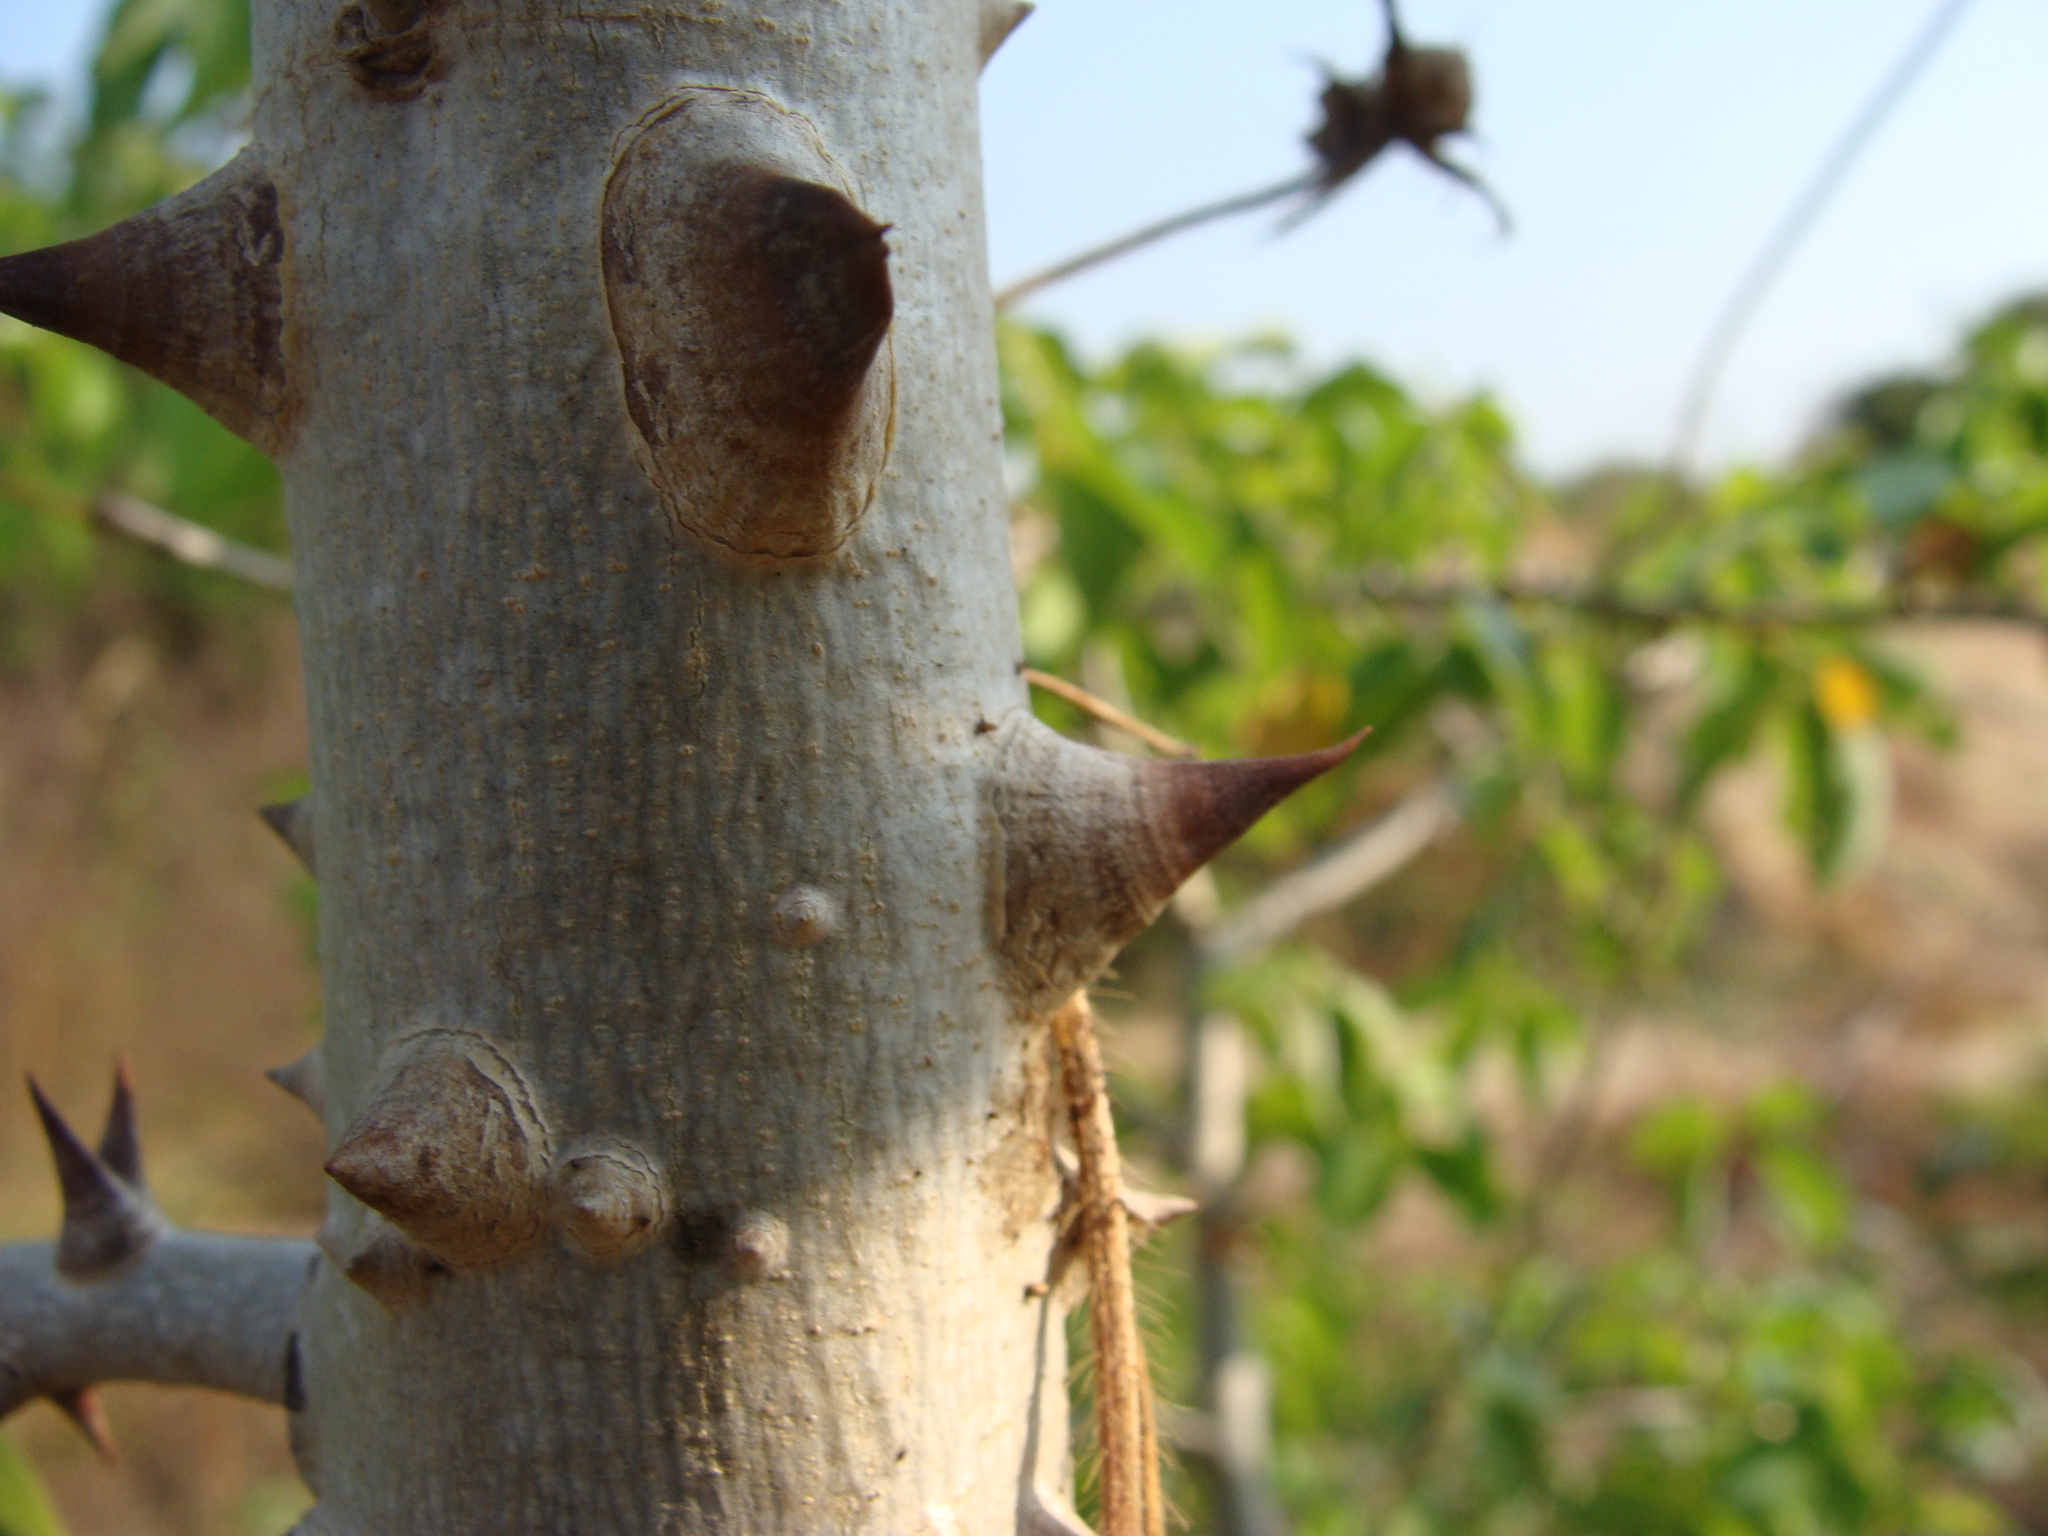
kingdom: Plantae
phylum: Tracheophyta
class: Magnoliopsida
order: Malvales
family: Malvaceae
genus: Ceiba
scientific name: Ceiba aesculifolia
